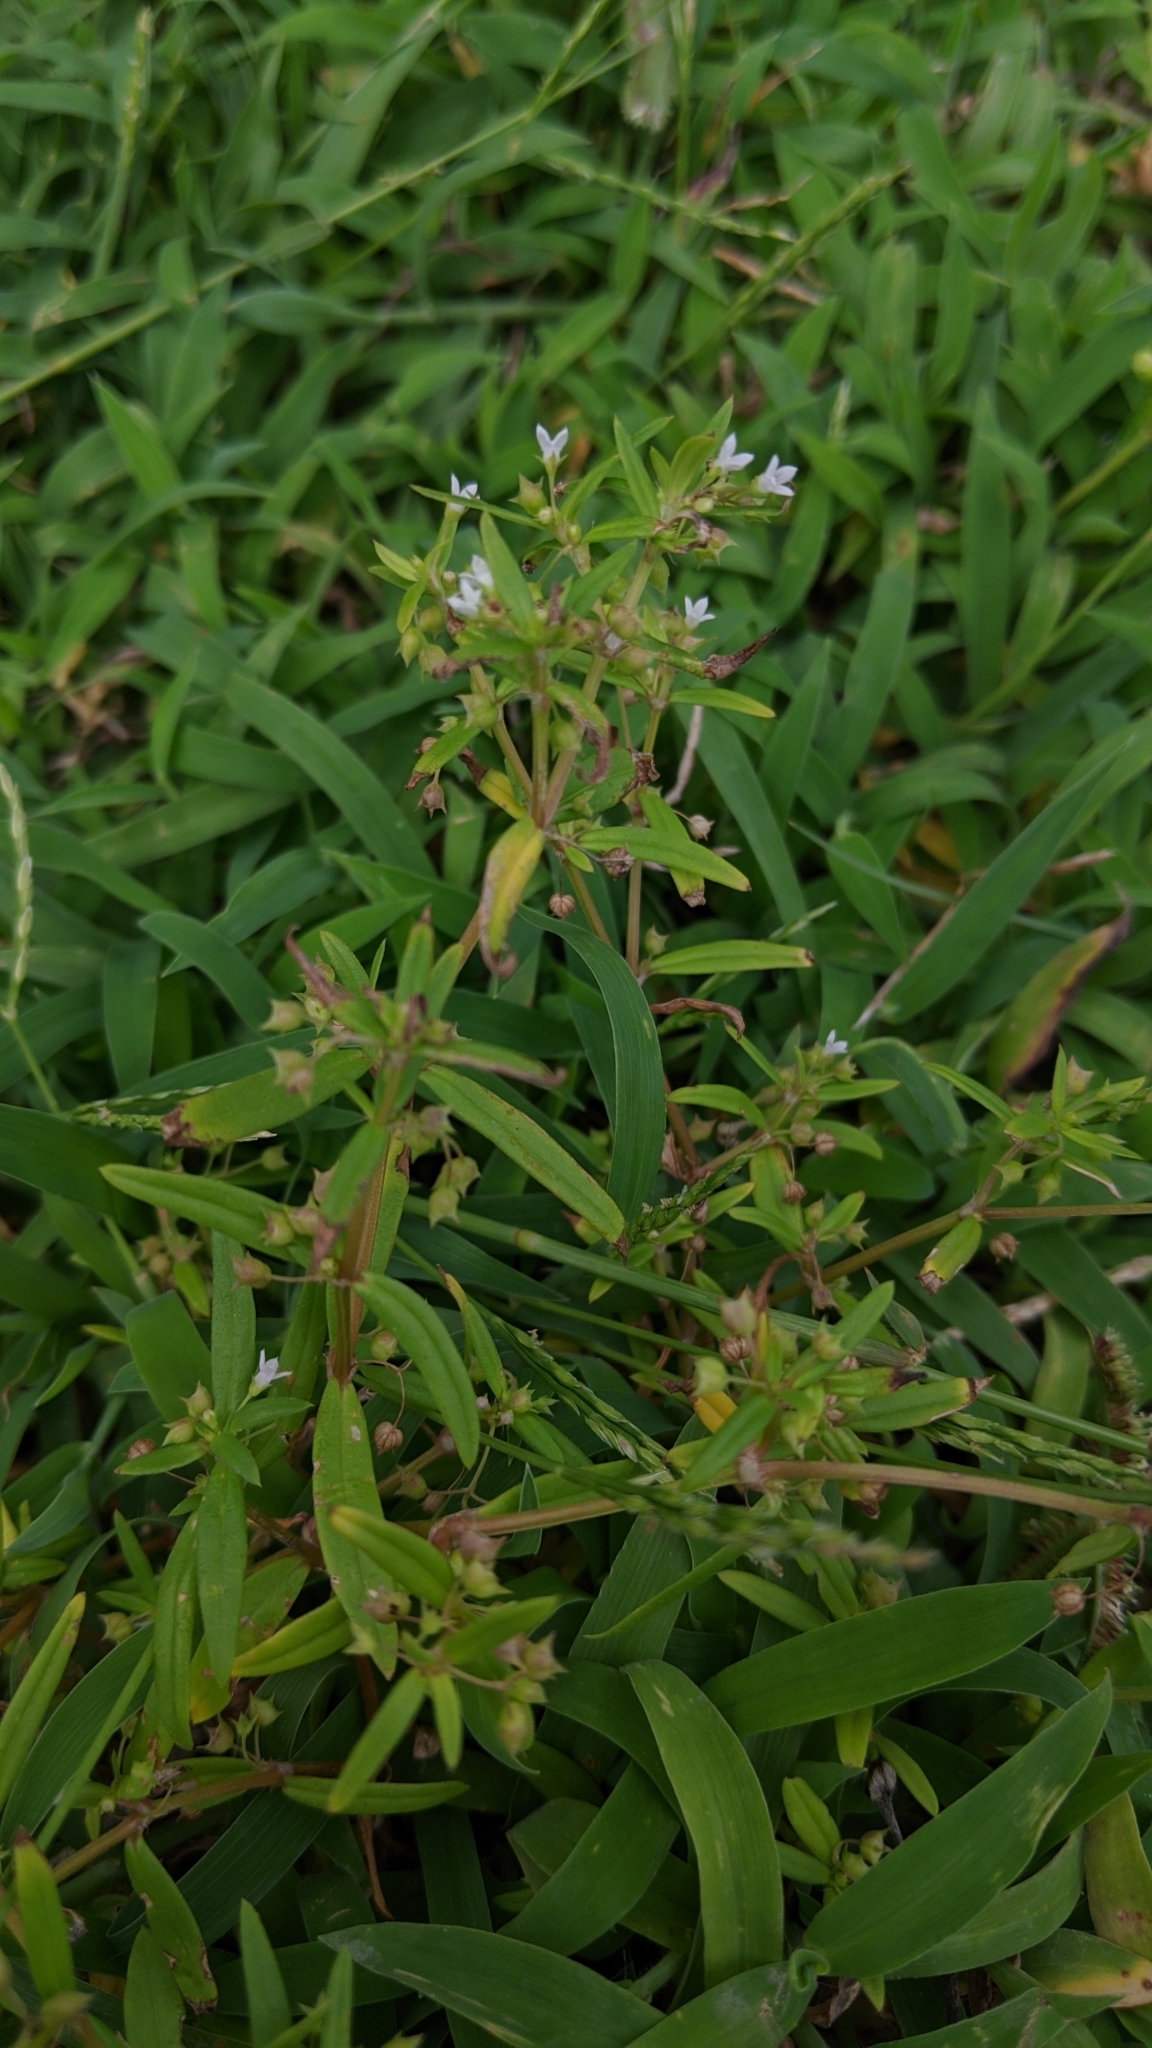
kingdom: Plantae
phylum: Tracheophyta
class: Magnoliopsida
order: Gentianales
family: Rubiaceae
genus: Oldenlandia
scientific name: Oldenlandia corymbosa
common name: Flat-top mille graines
